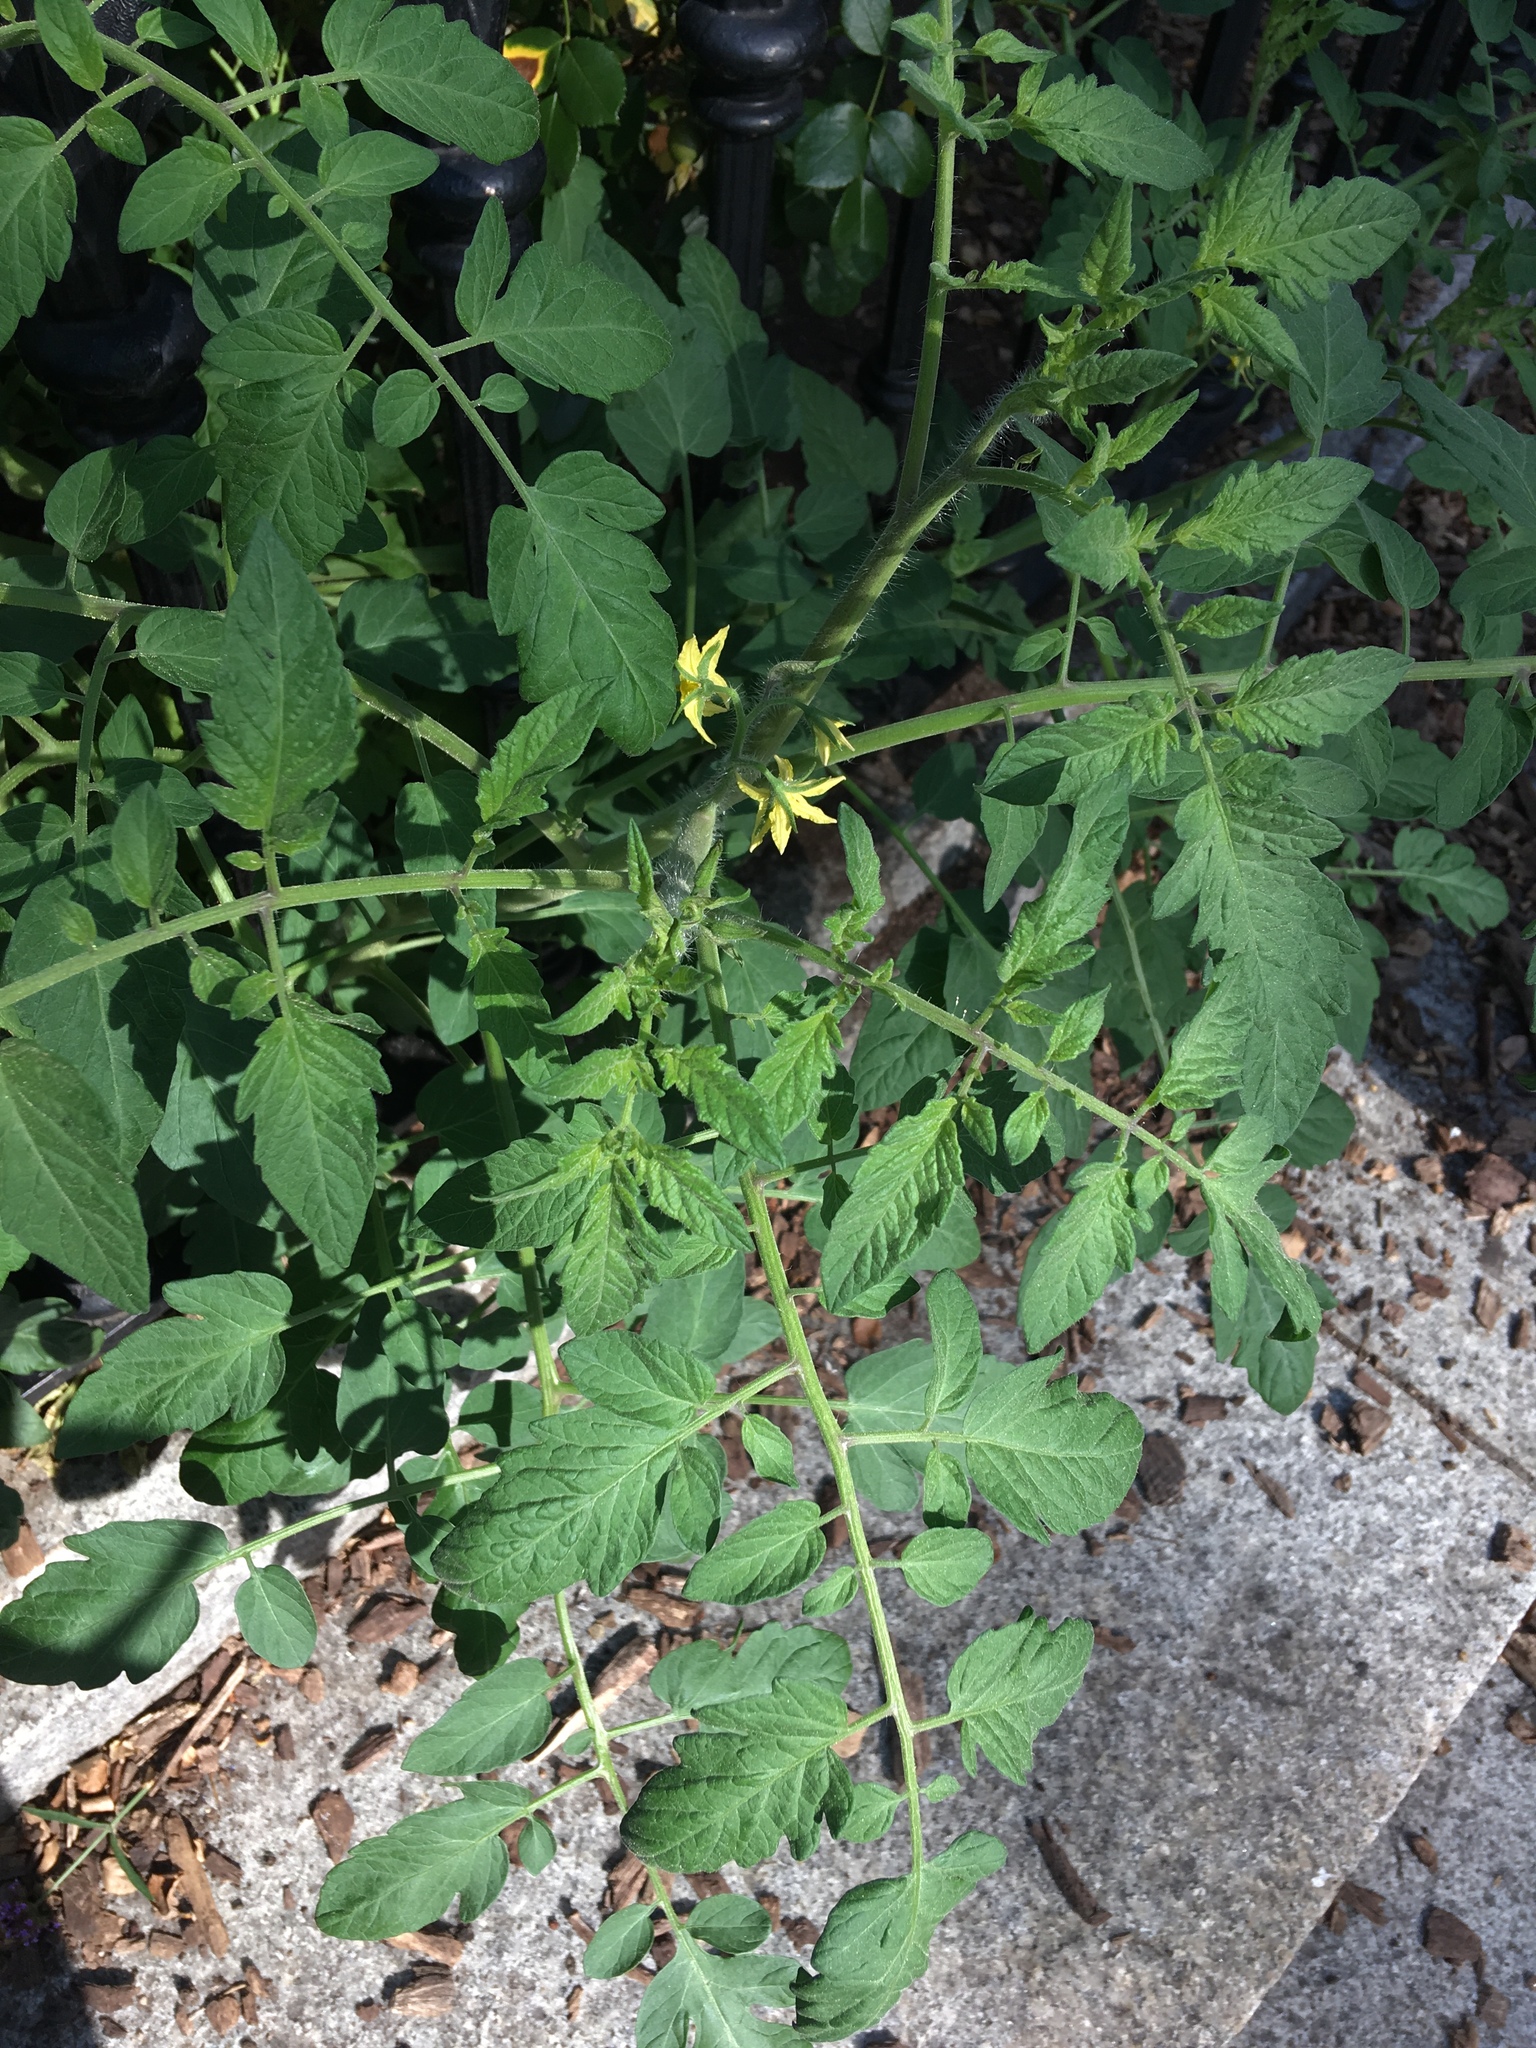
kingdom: Plantae
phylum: Tracheophyta
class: Magnoliopsida
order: Solanales
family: Solanaceae
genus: Solanum
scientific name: Solanum lycopersicum
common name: Garden tomato
